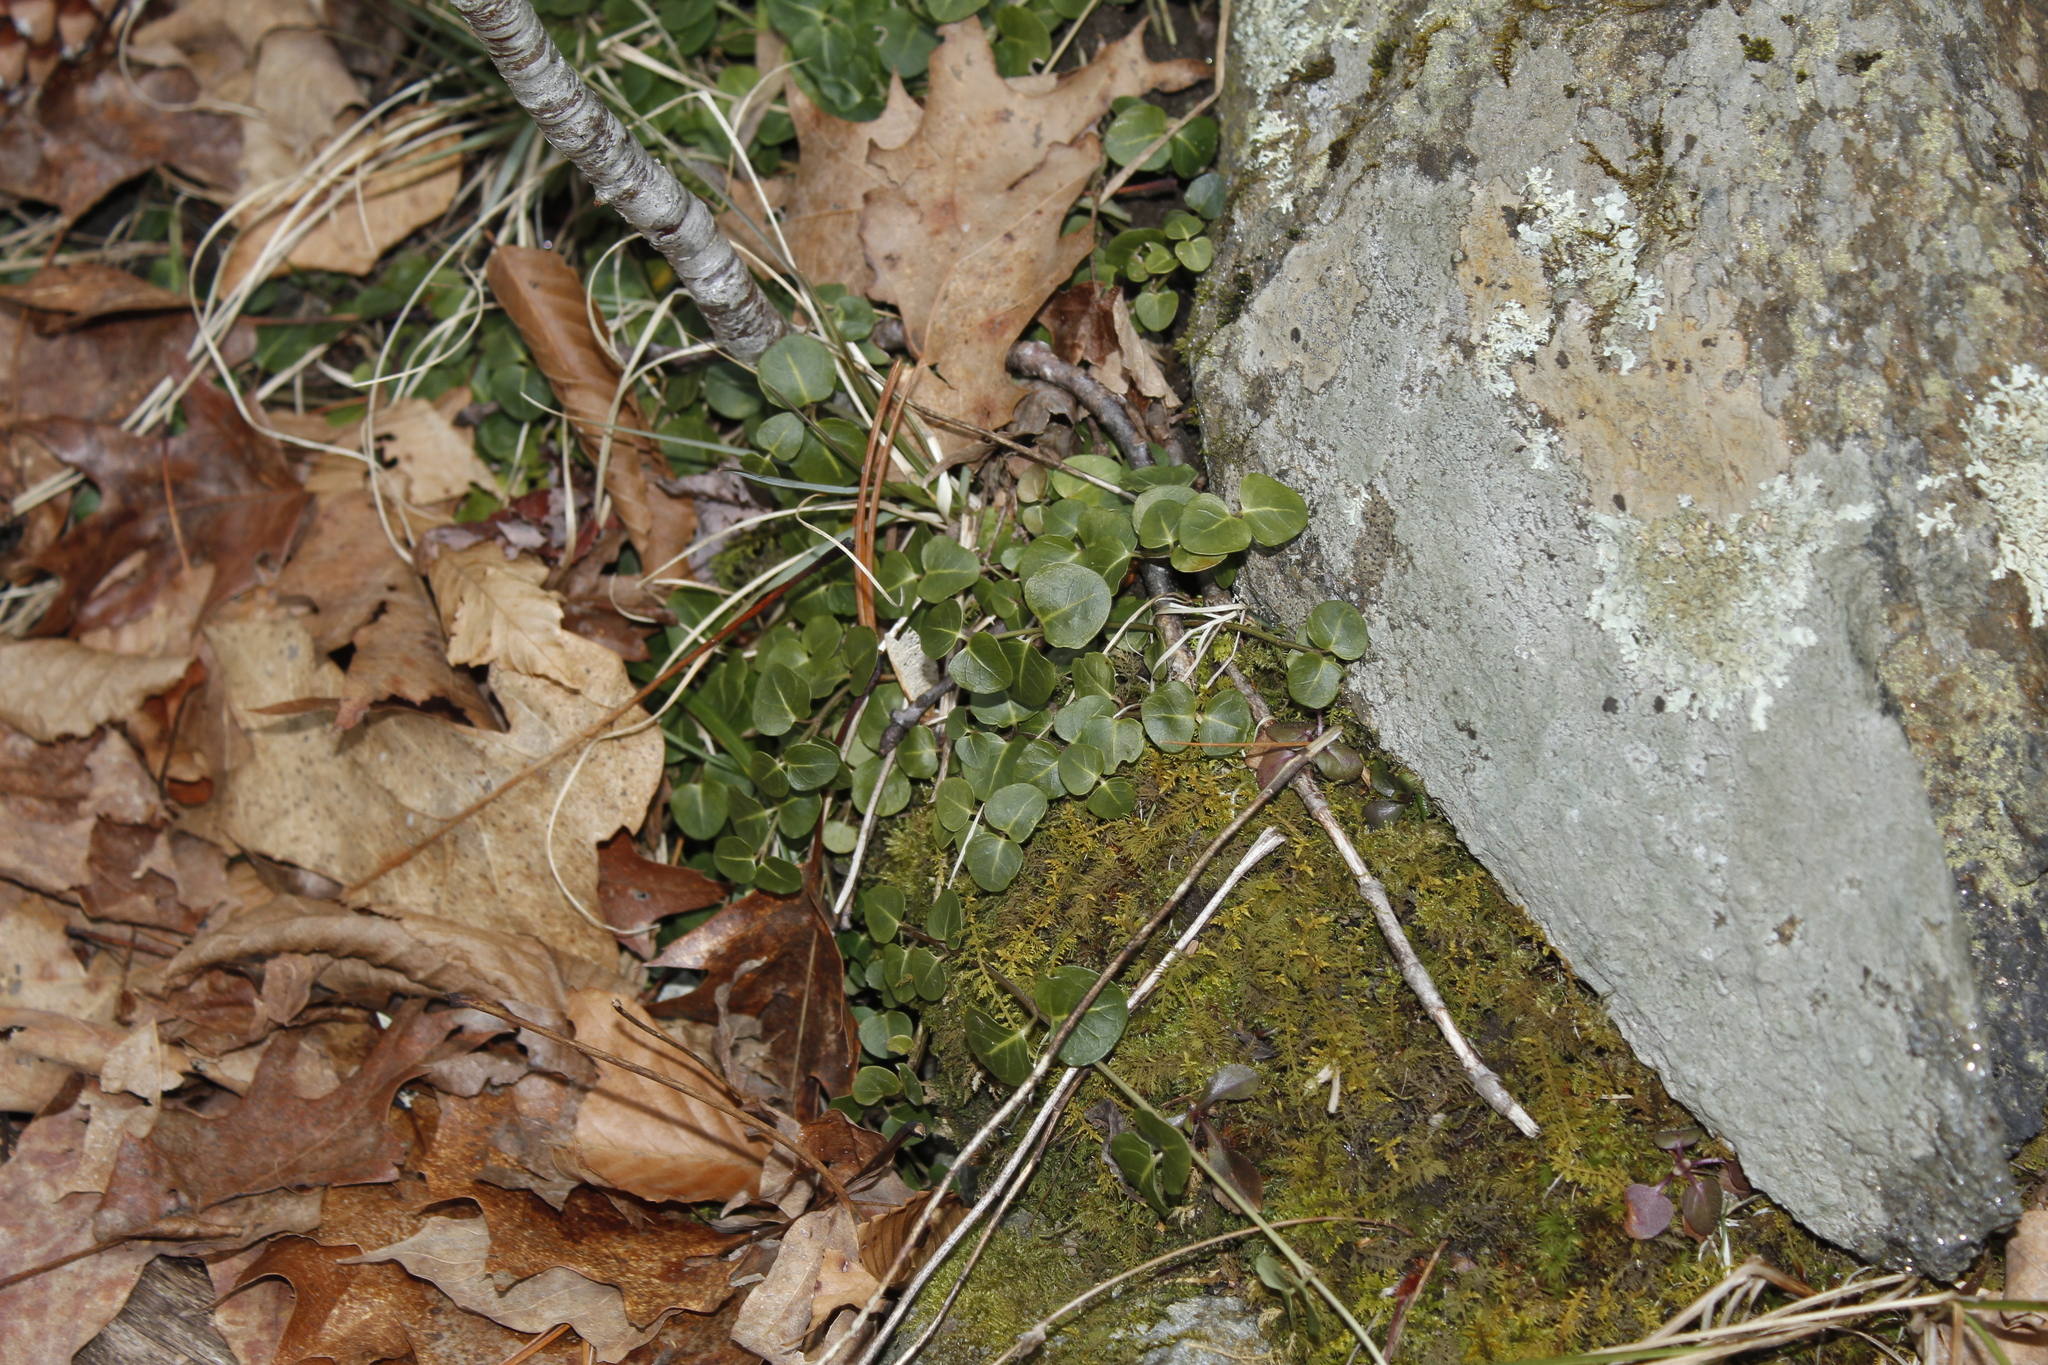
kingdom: Plantae
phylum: Tracheophyta
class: Magnoliopsida
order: Gentianales
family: Rubiaceae
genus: Mitchella
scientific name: Mitchella repens
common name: Partridge-berry
